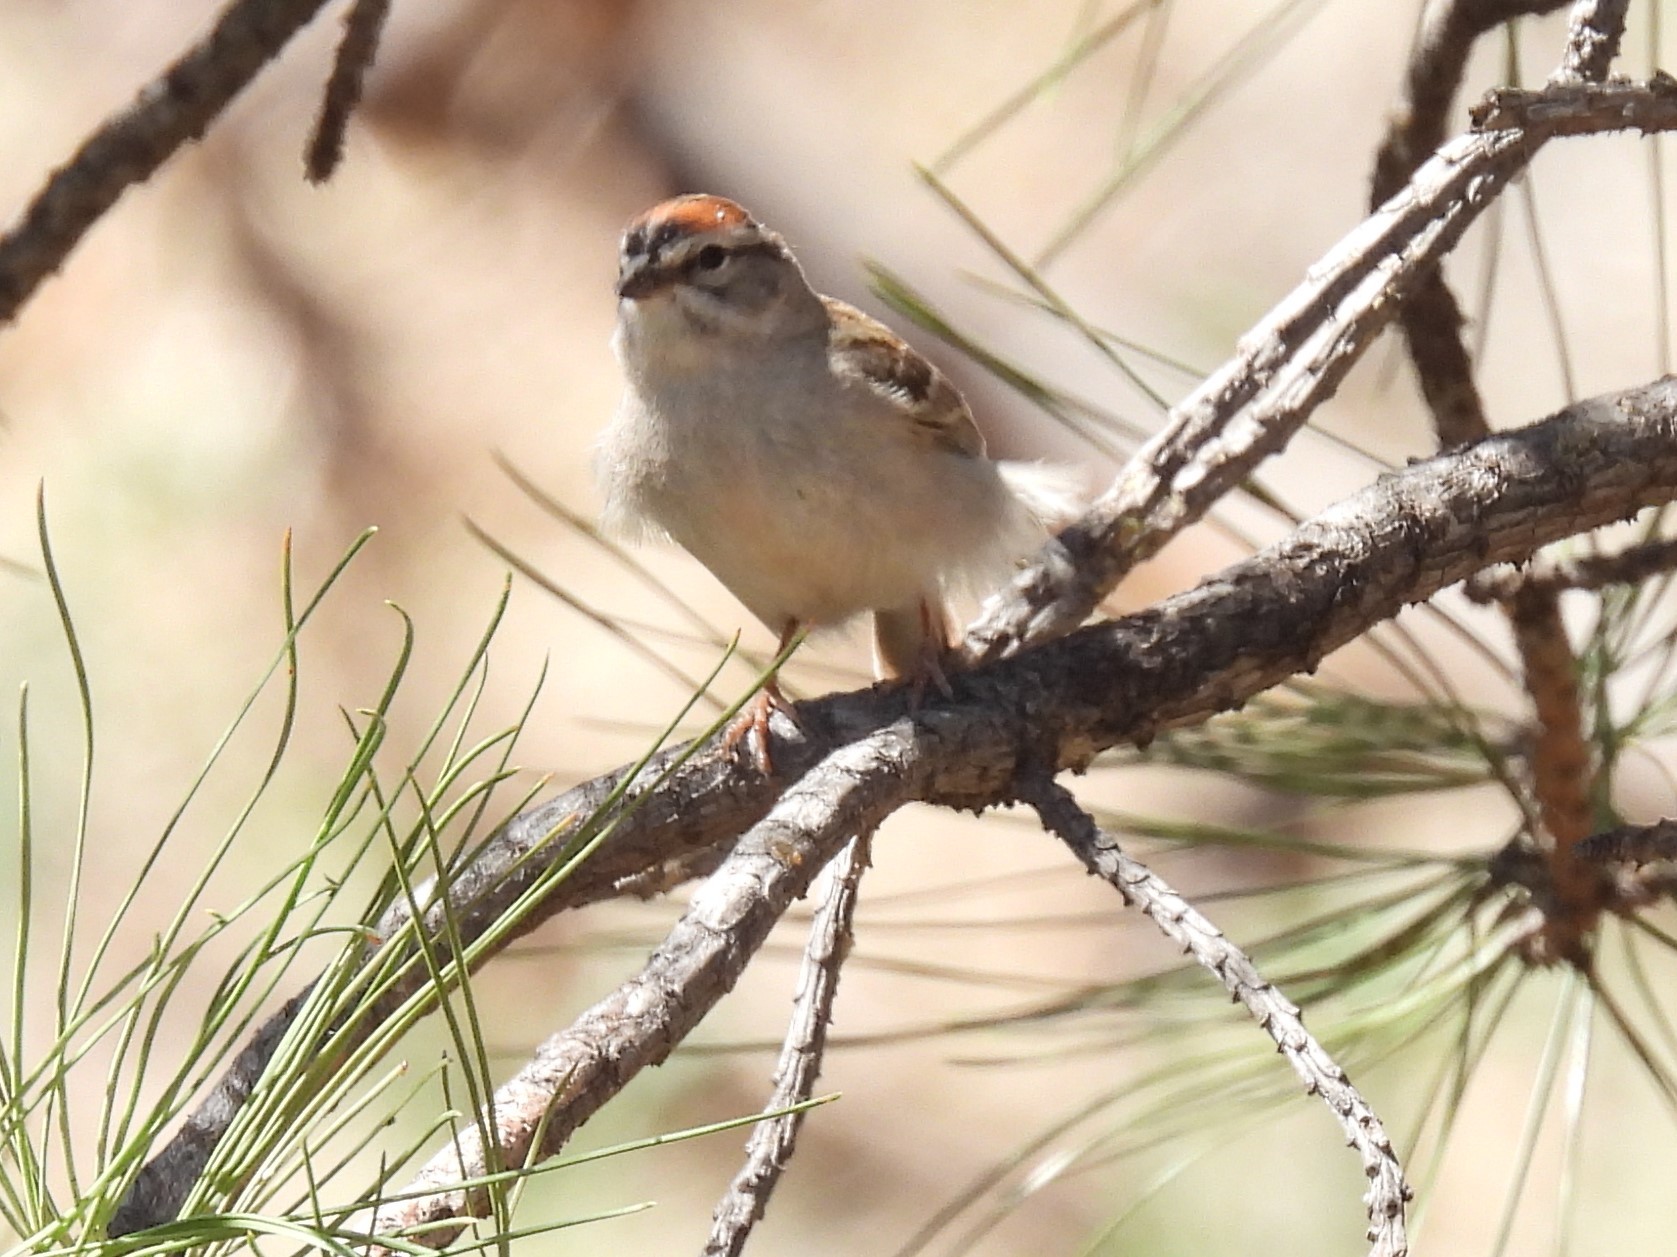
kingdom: Animalia
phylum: Chordata
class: Aves
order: Passeriformes
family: Passerellidae
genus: Spizella
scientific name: Spizella passerina
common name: Chipping sparrow
